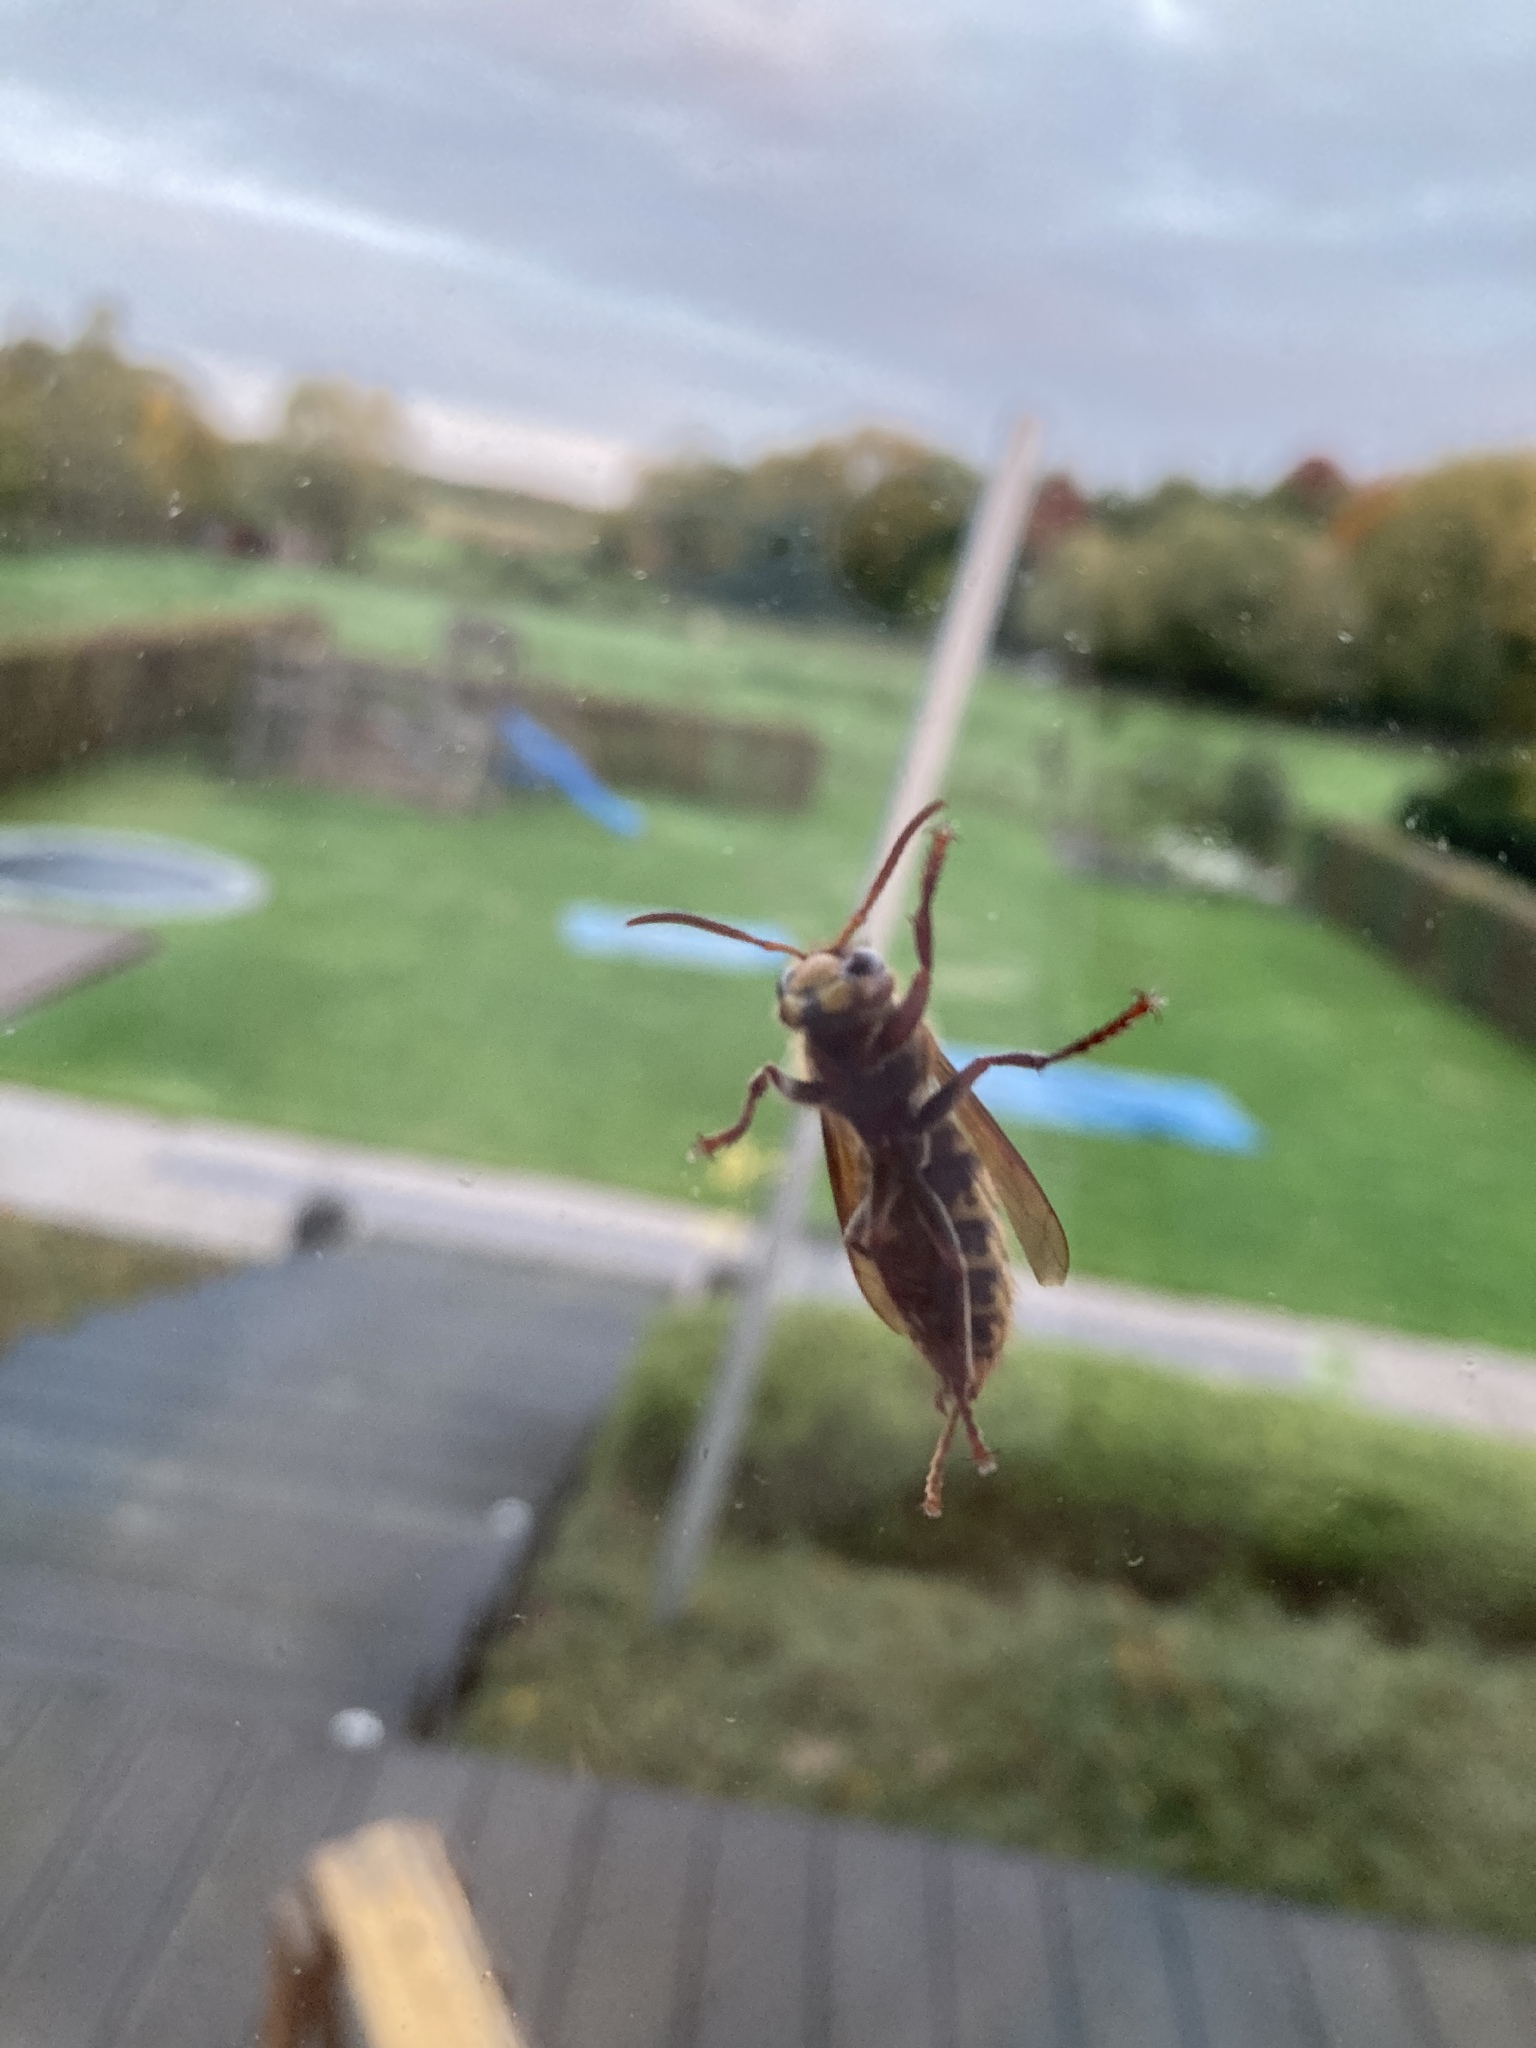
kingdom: Animalia
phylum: Arthropoda
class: Insecta
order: Hymenoptera
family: Vespidae
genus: Vespa
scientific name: Vespa crabro
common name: Hornet
